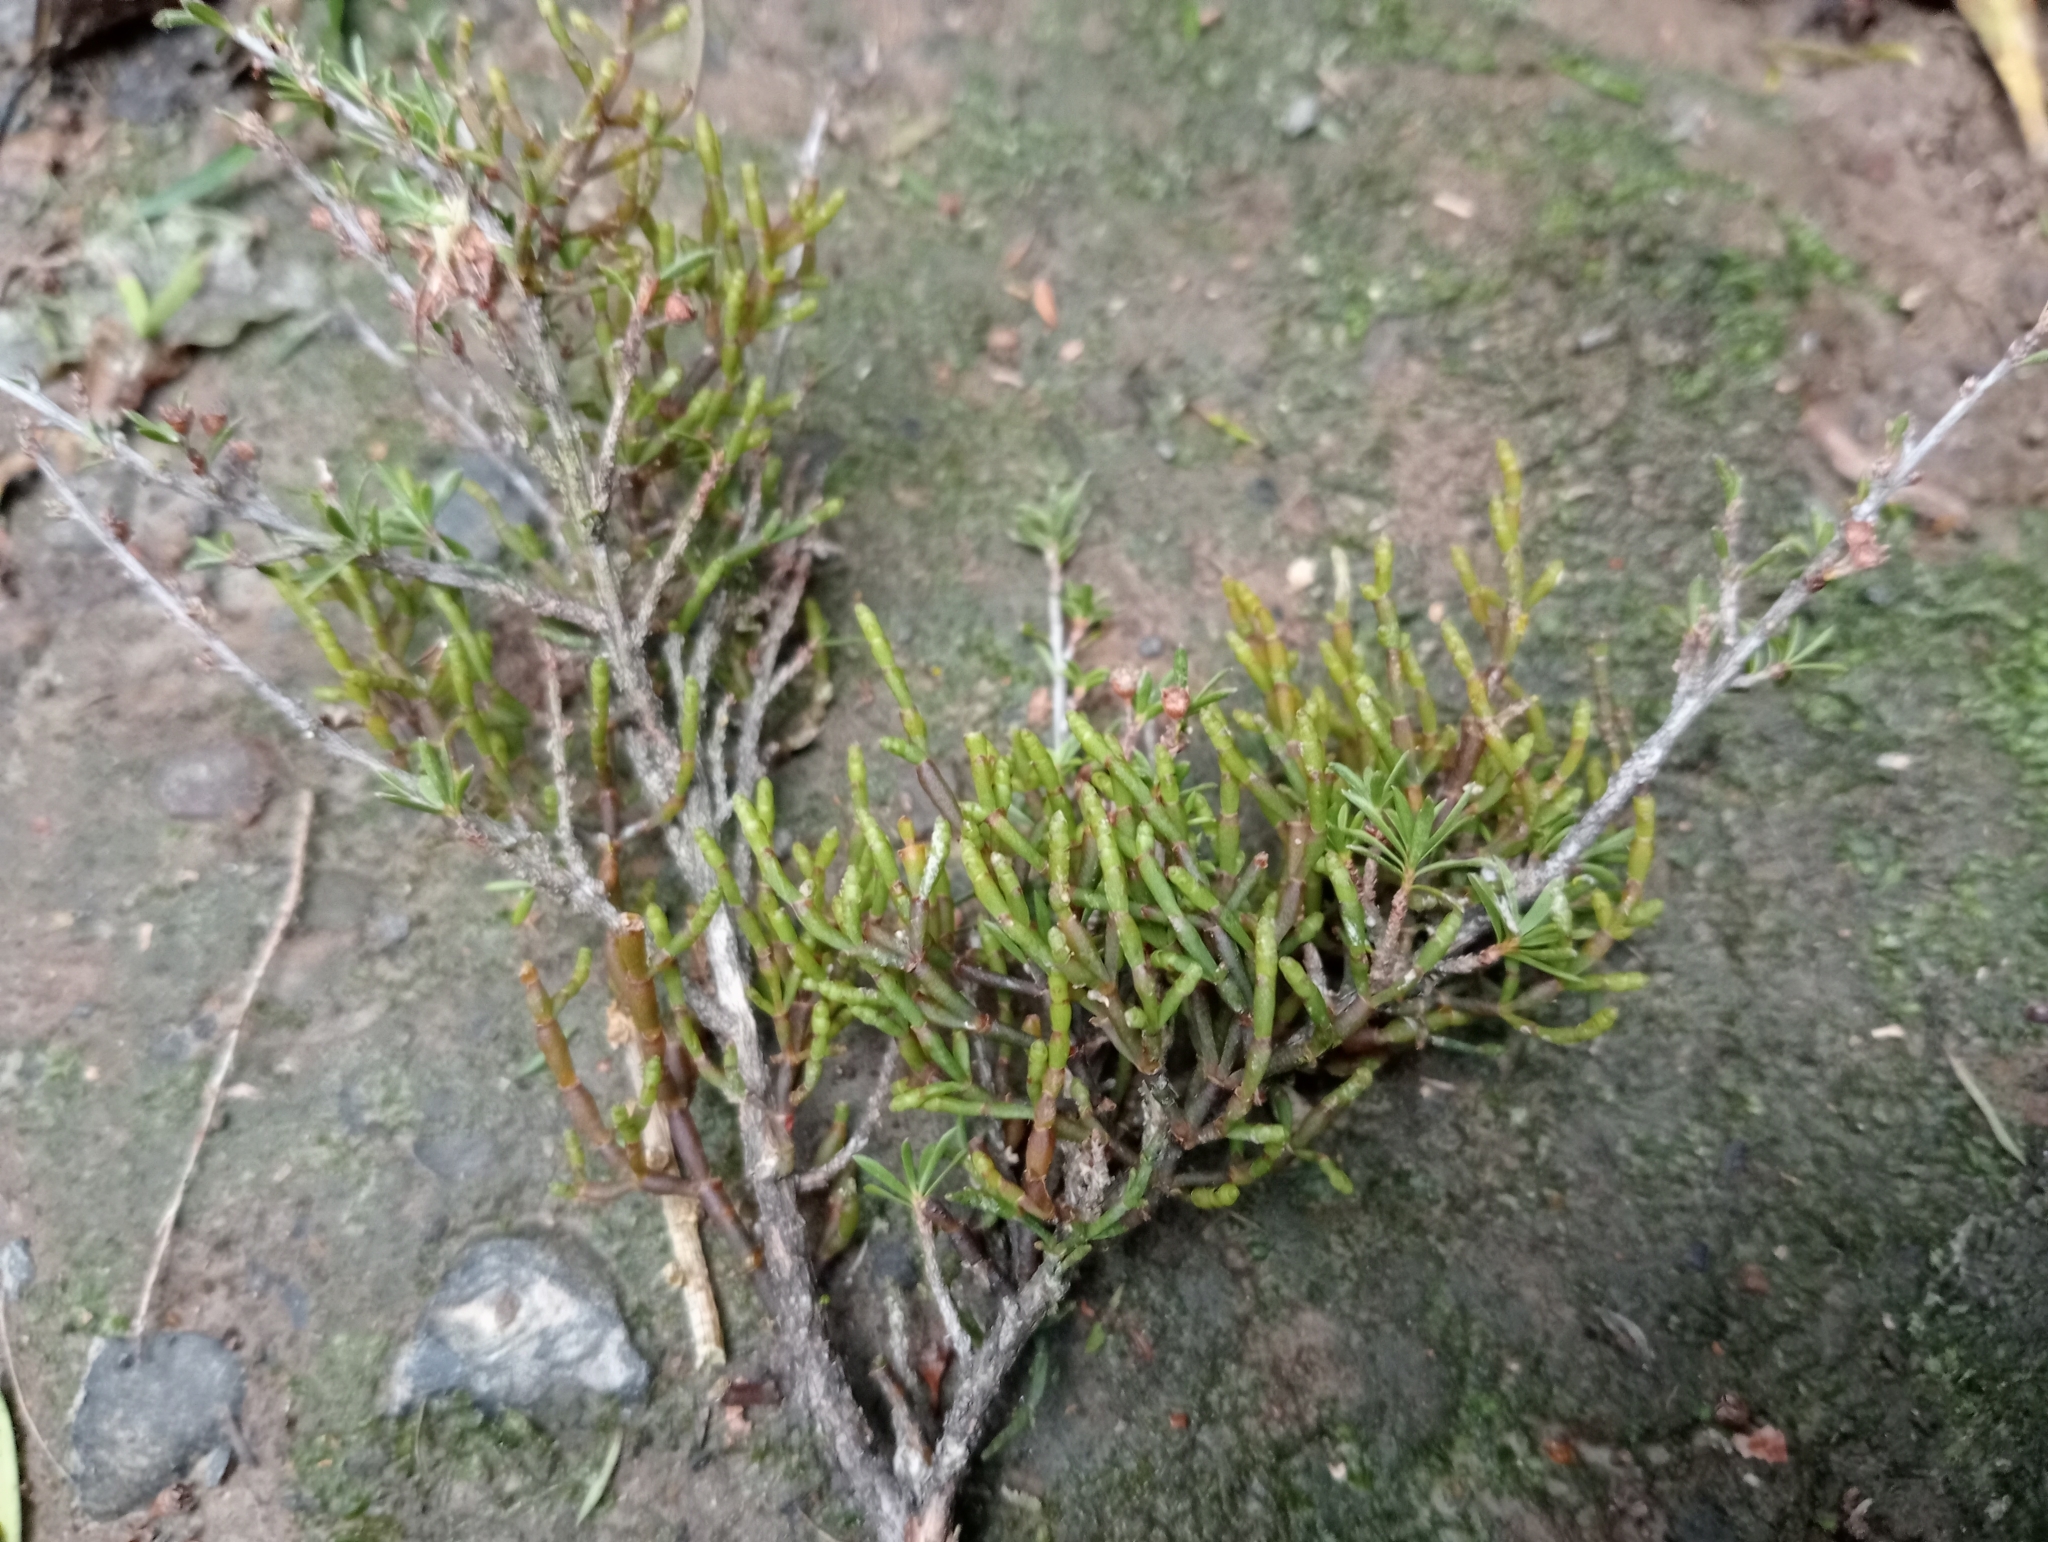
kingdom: Plantae
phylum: Tracheophyta
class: Magnoliopsida
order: Santalales
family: Viscaceae
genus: Korthalsella
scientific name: Korthalsella salicornioides
